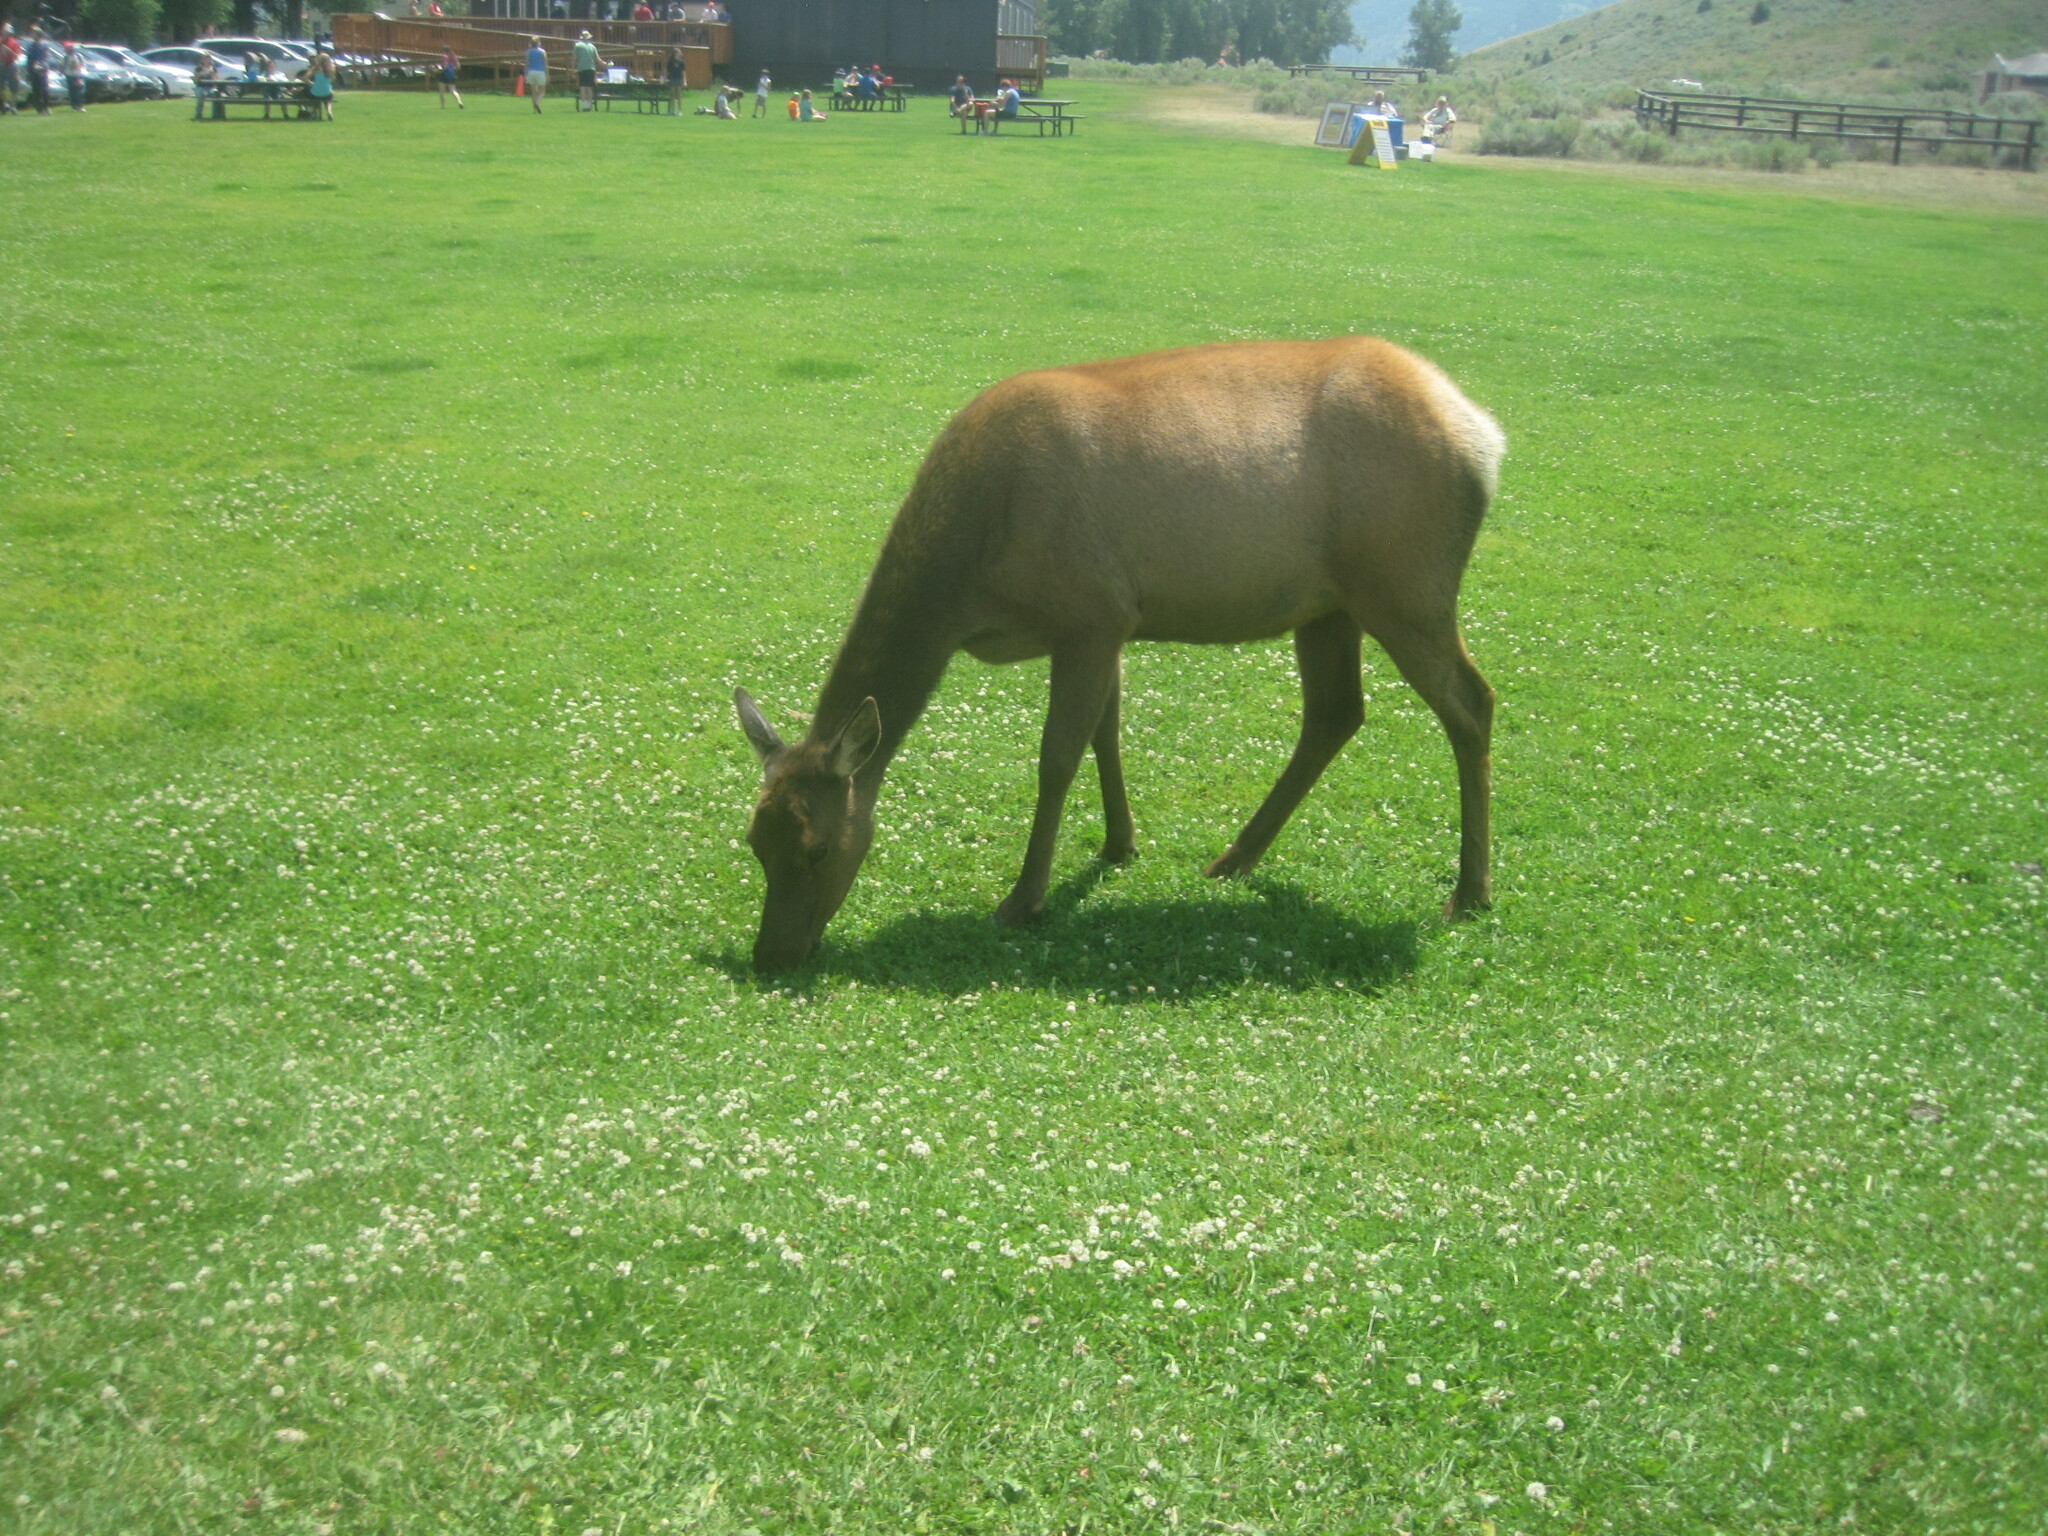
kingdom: Animalia
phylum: Chordata
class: Mammalia
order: Artiodactyla
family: Cervidae
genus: Cervus
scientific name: Cervus elaphus
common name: Red deer
